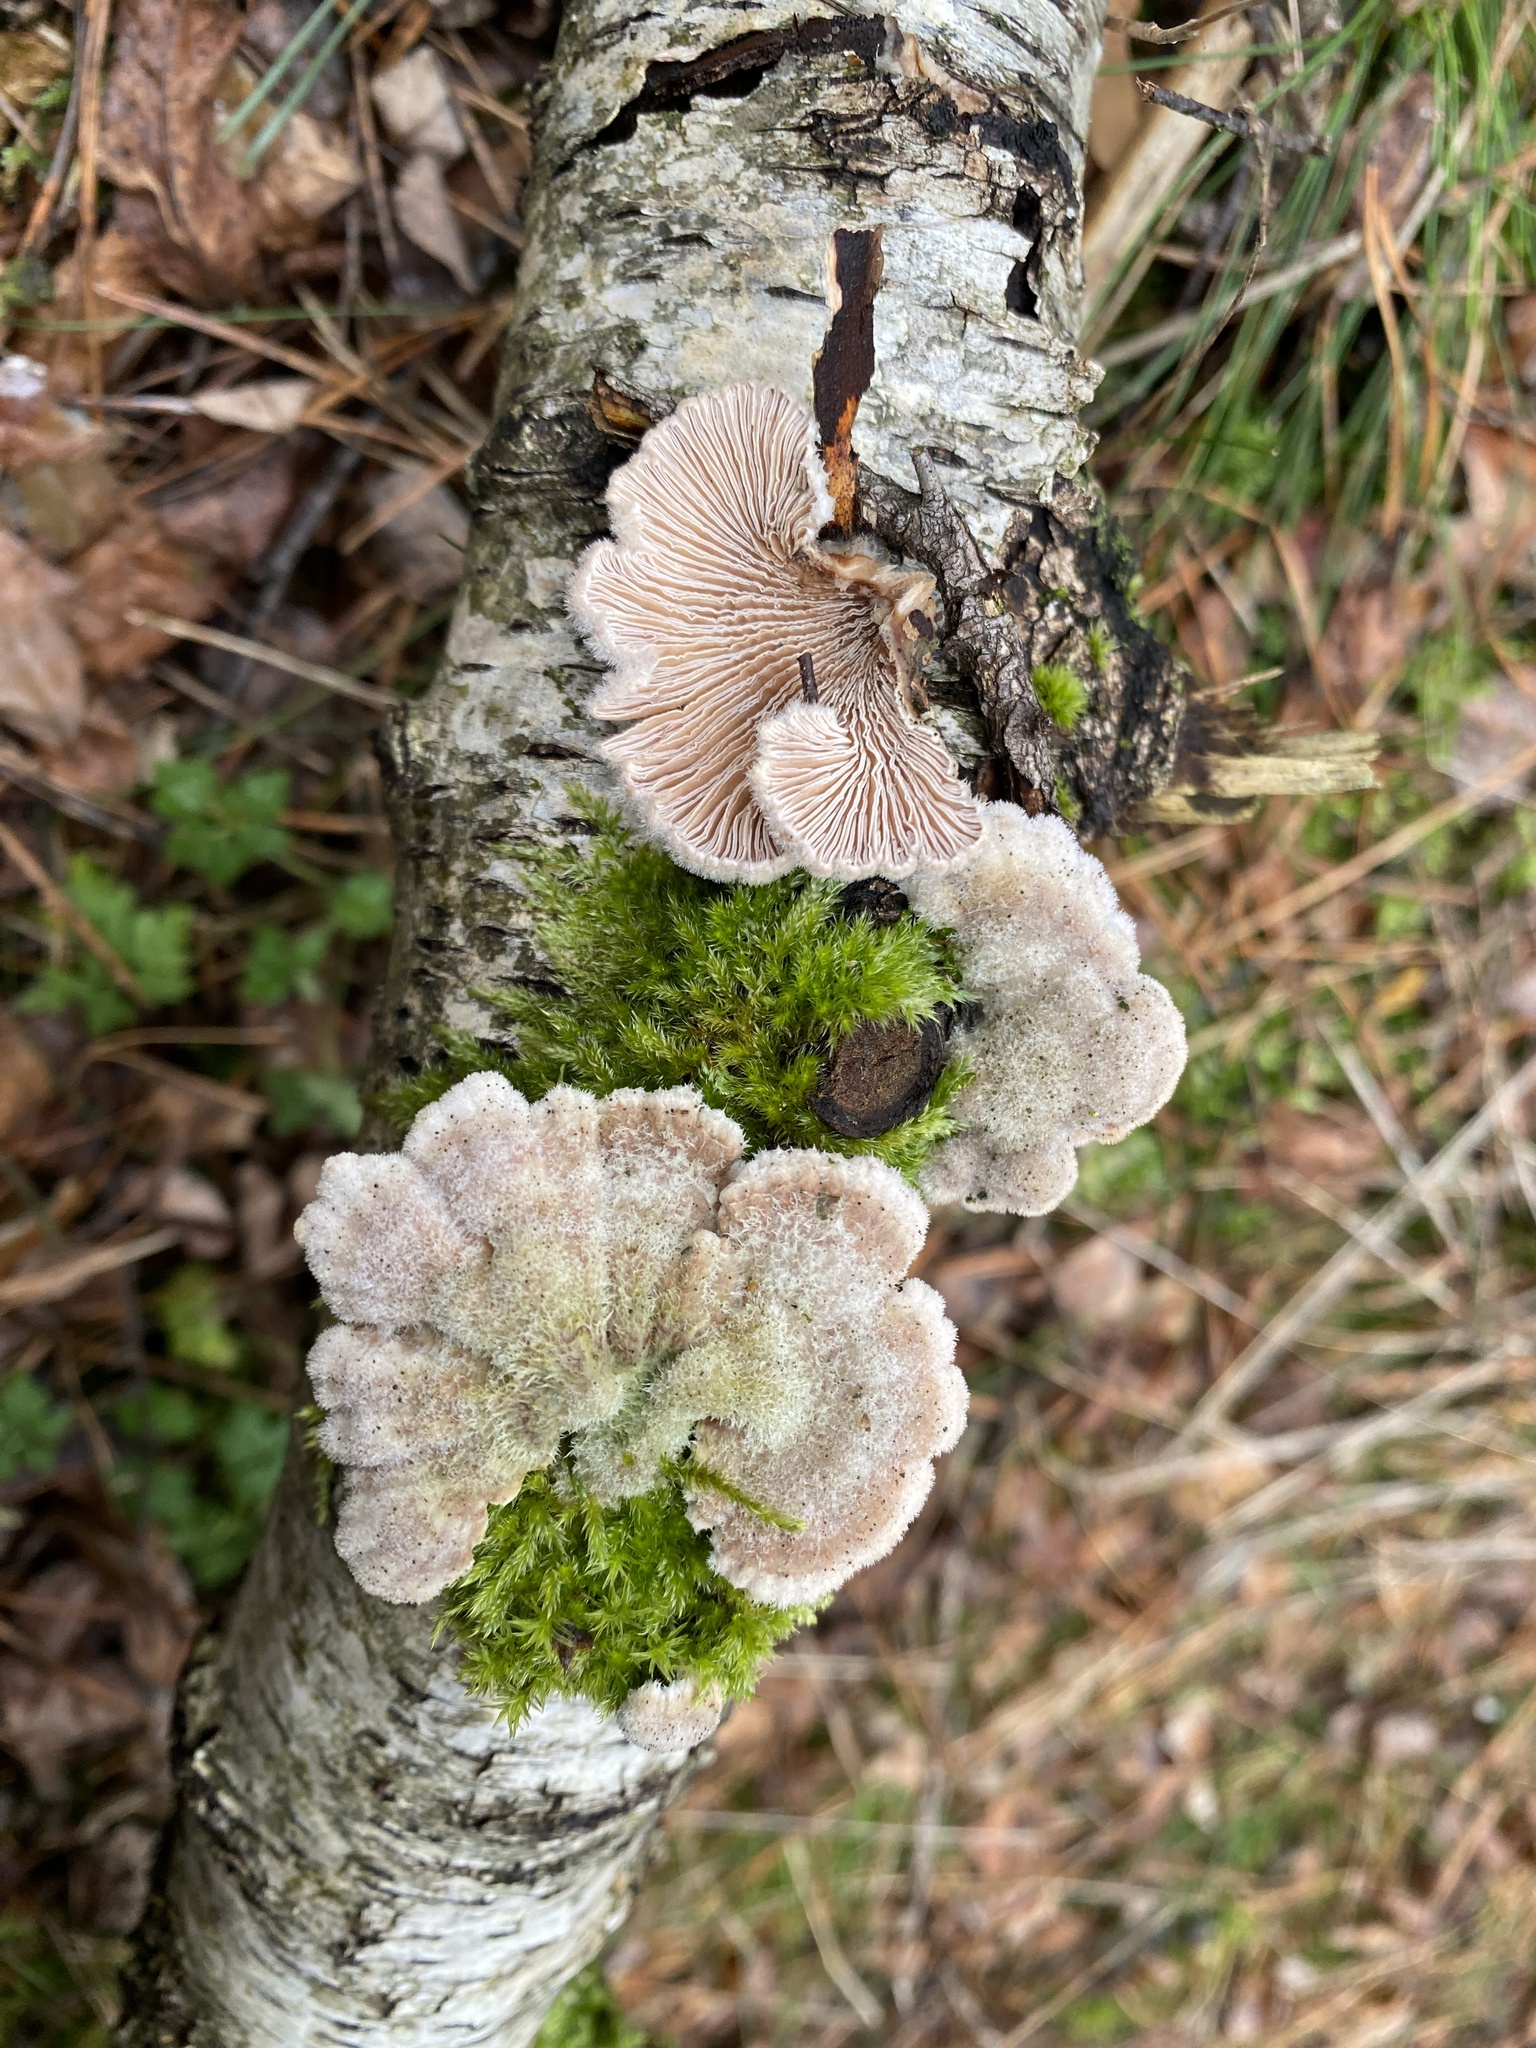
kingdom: Fungi
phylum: Basidiomycota
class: Agaricomycetes
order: Agaricales
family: Schizophyllaceae
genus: Schizophyllum
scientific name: Schizophyllum commune
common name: Common porecrust
